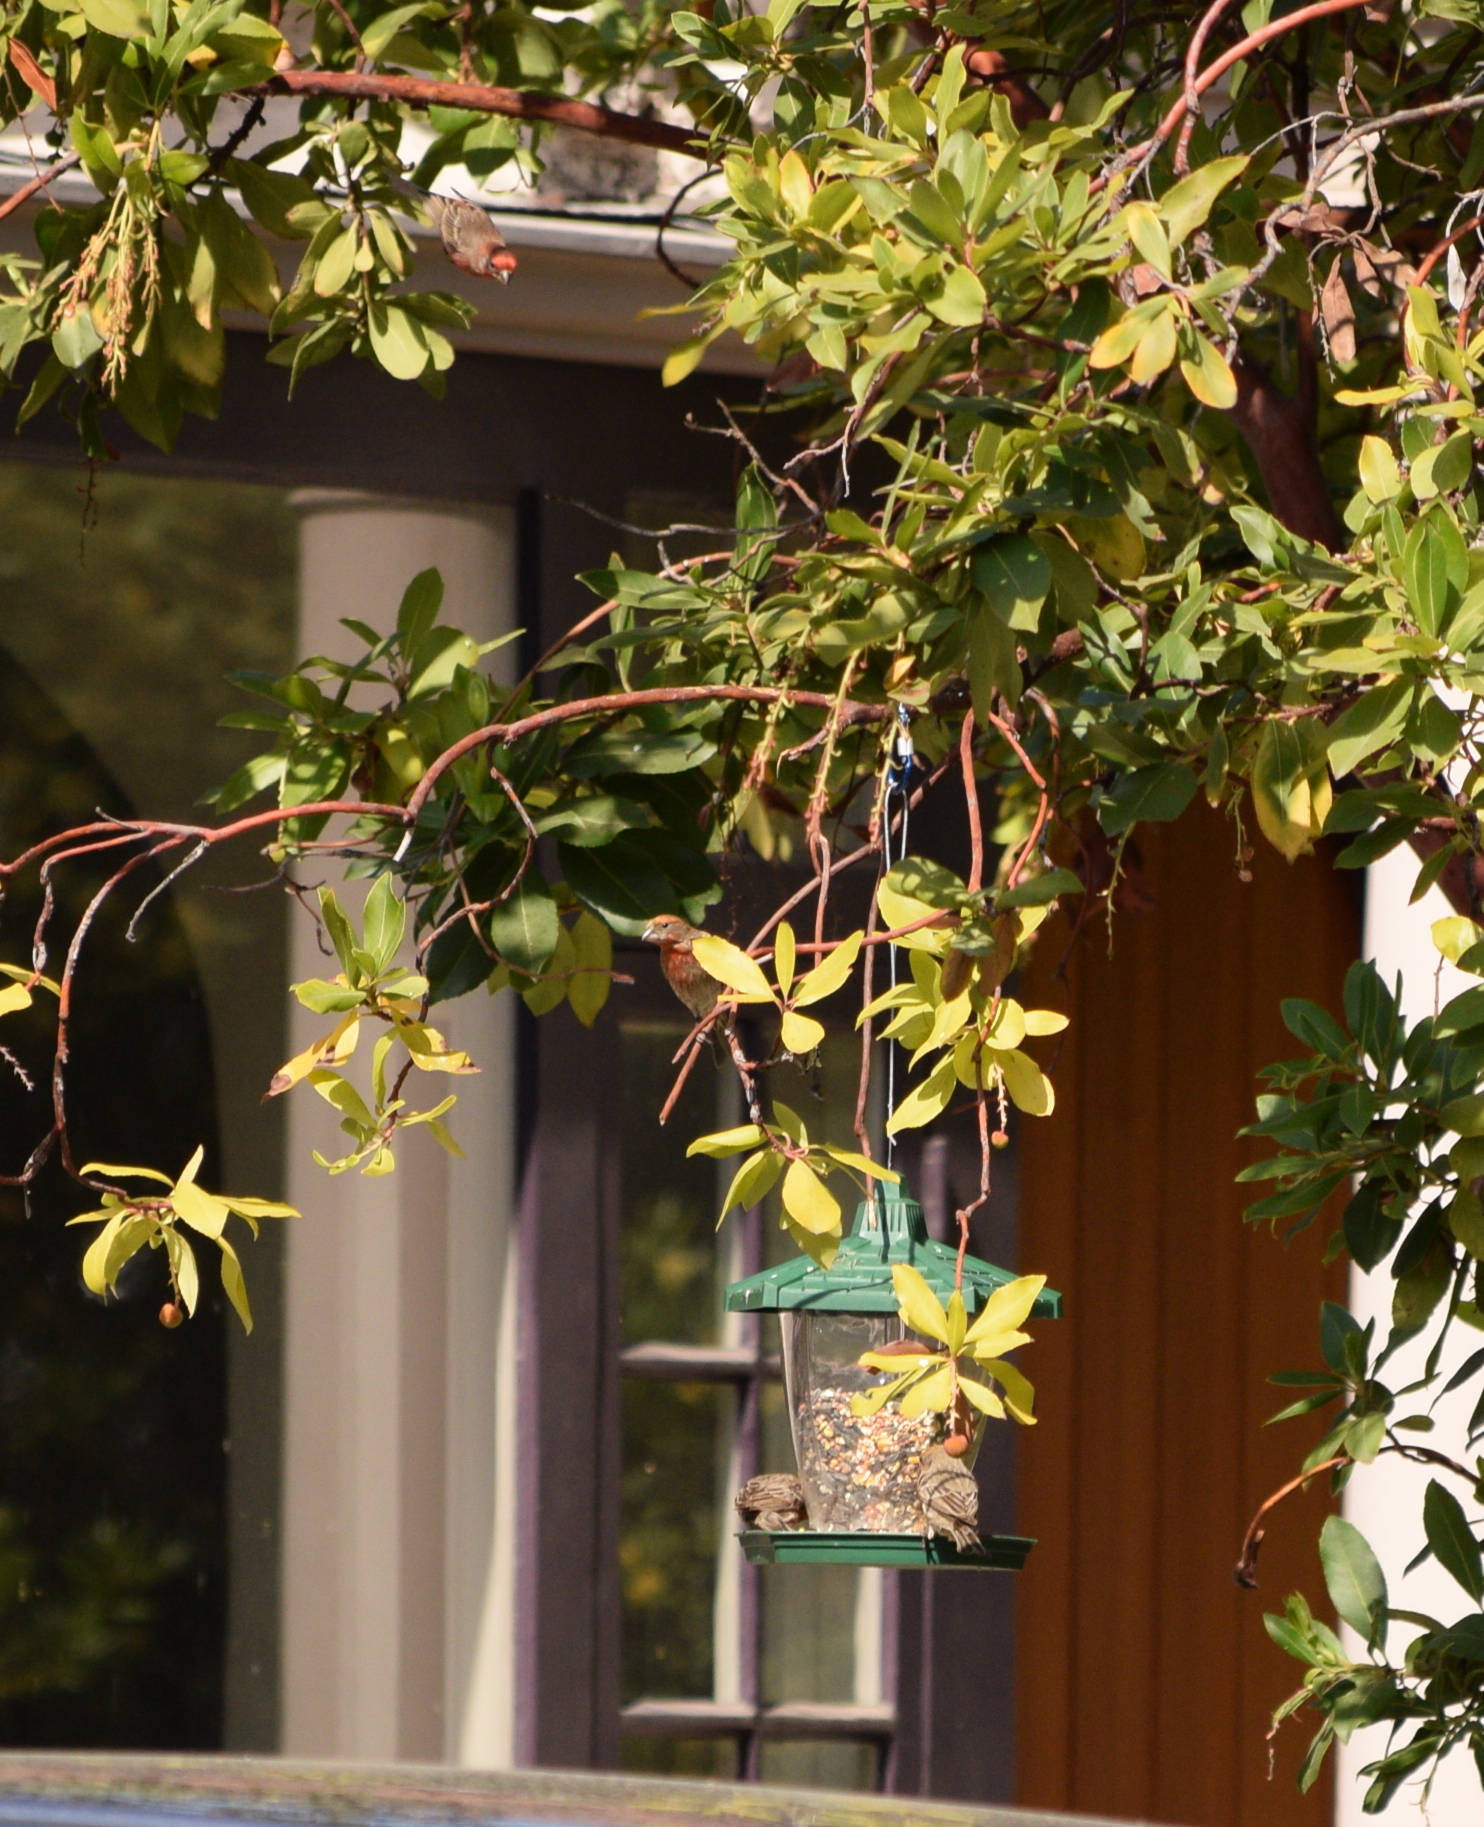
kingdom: Animalia
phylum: Chordata
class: Aves
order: Passeriformes
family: Fringillidae
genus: Haemorhous
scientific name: Haemorhous mexicanus
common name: House finch
